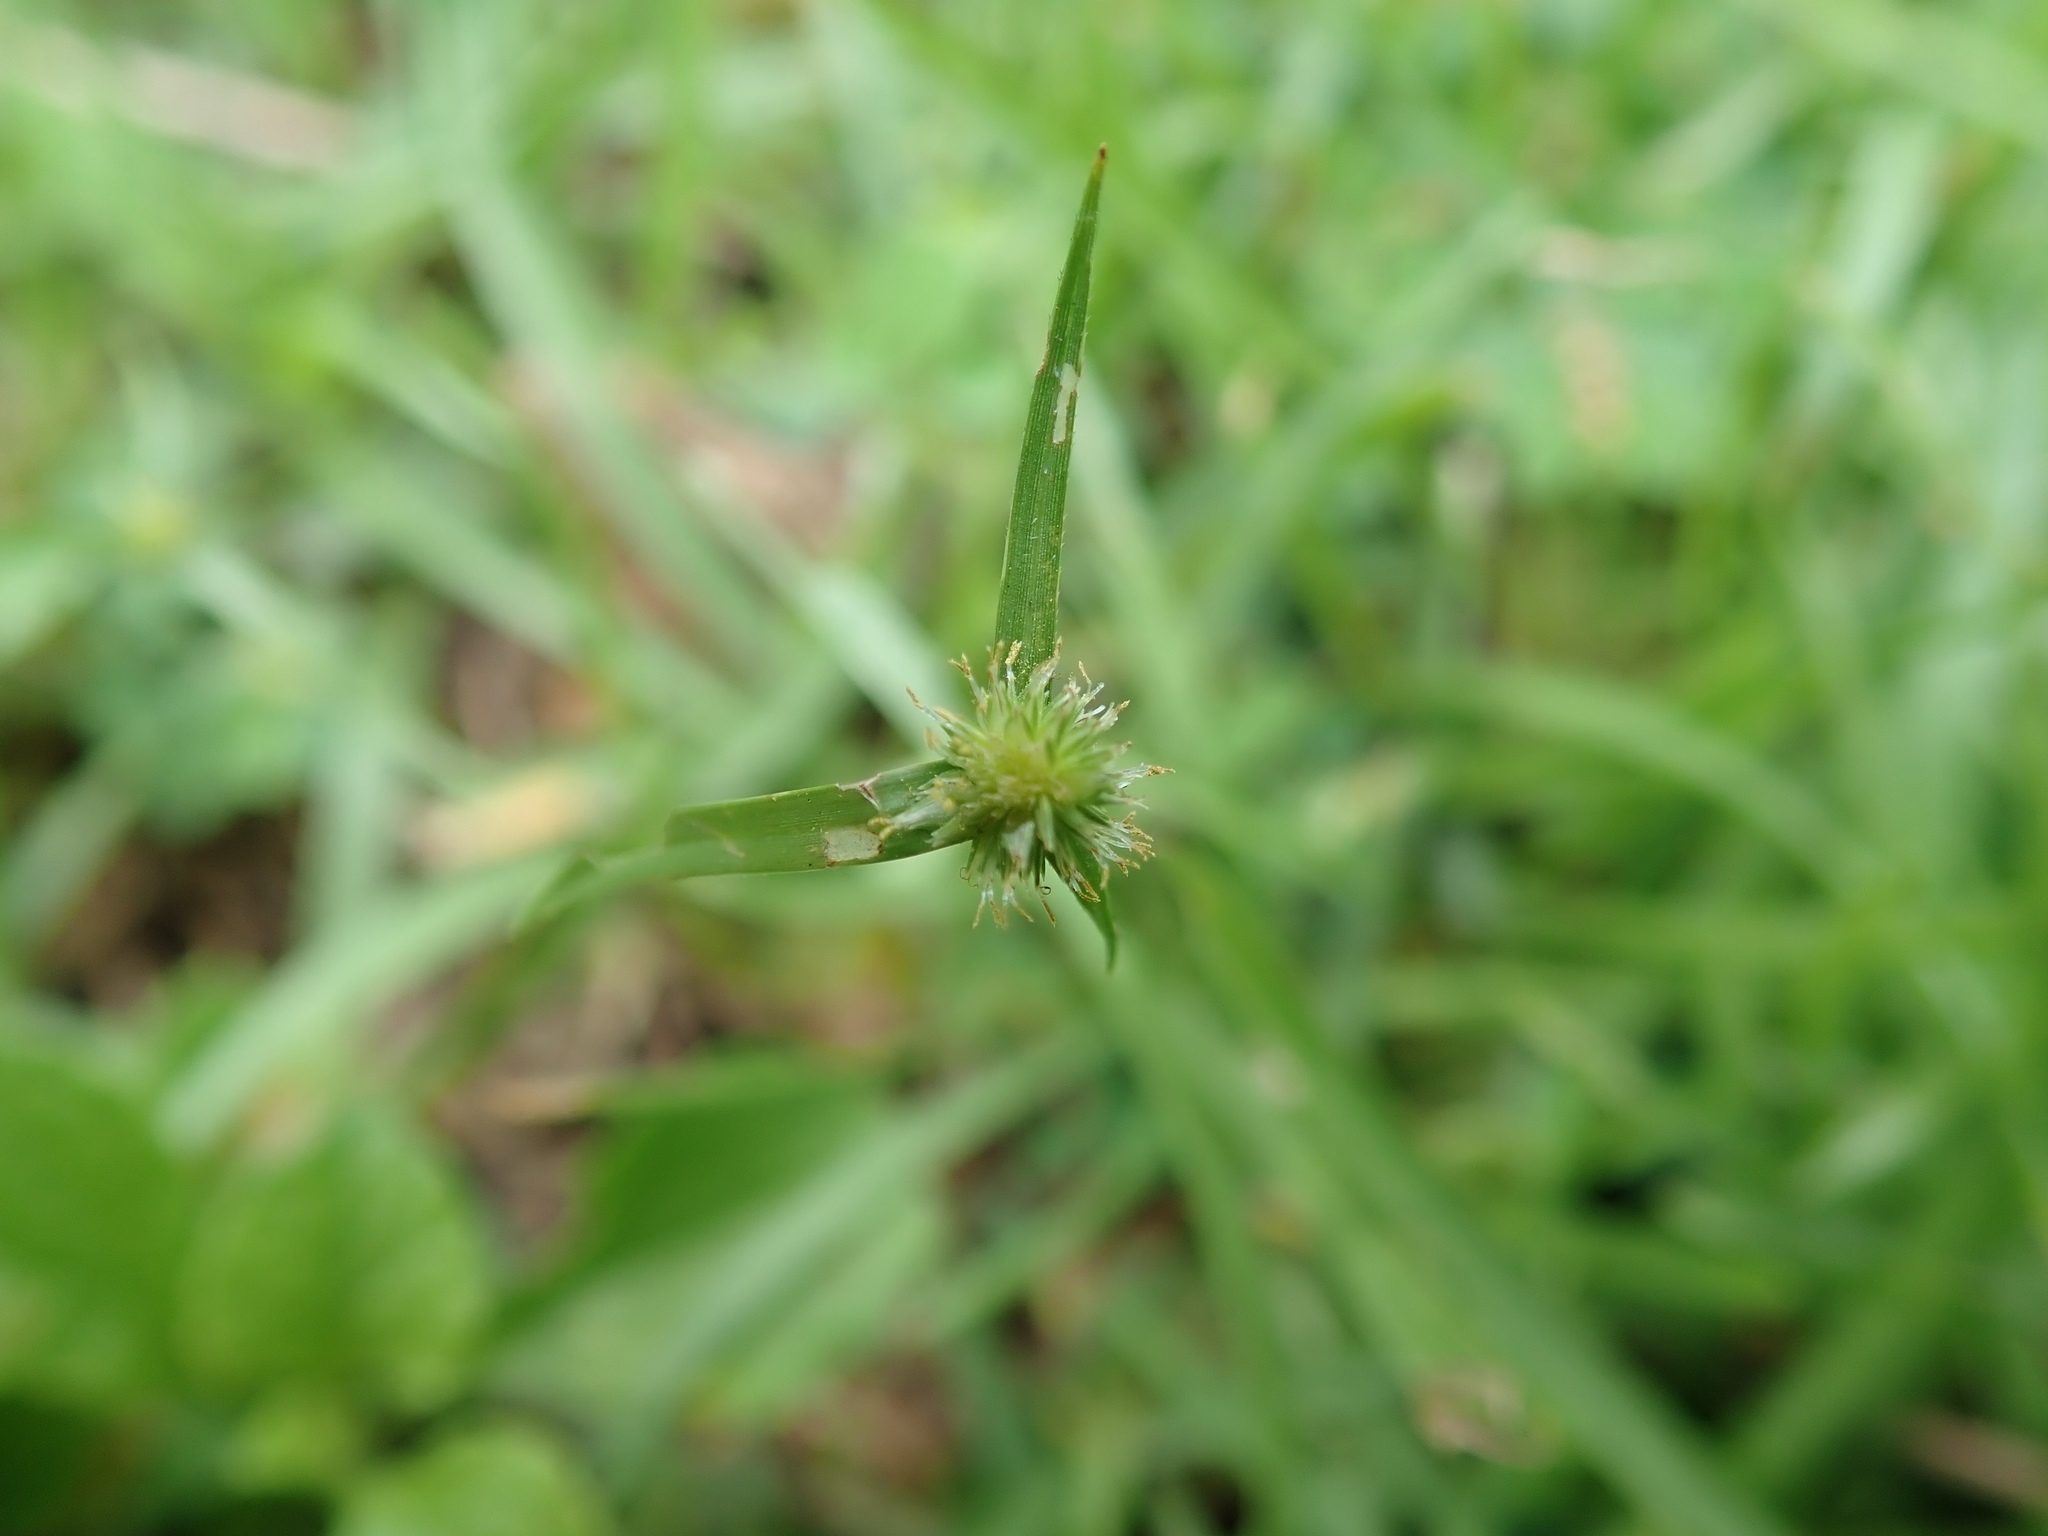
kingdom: Plantae
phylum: Tracheophyta
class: Liliopsida
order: Poales
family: Cyperaceae
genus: Cyperus
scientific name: Cyperus brevifolius
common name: Globe kyllinga
